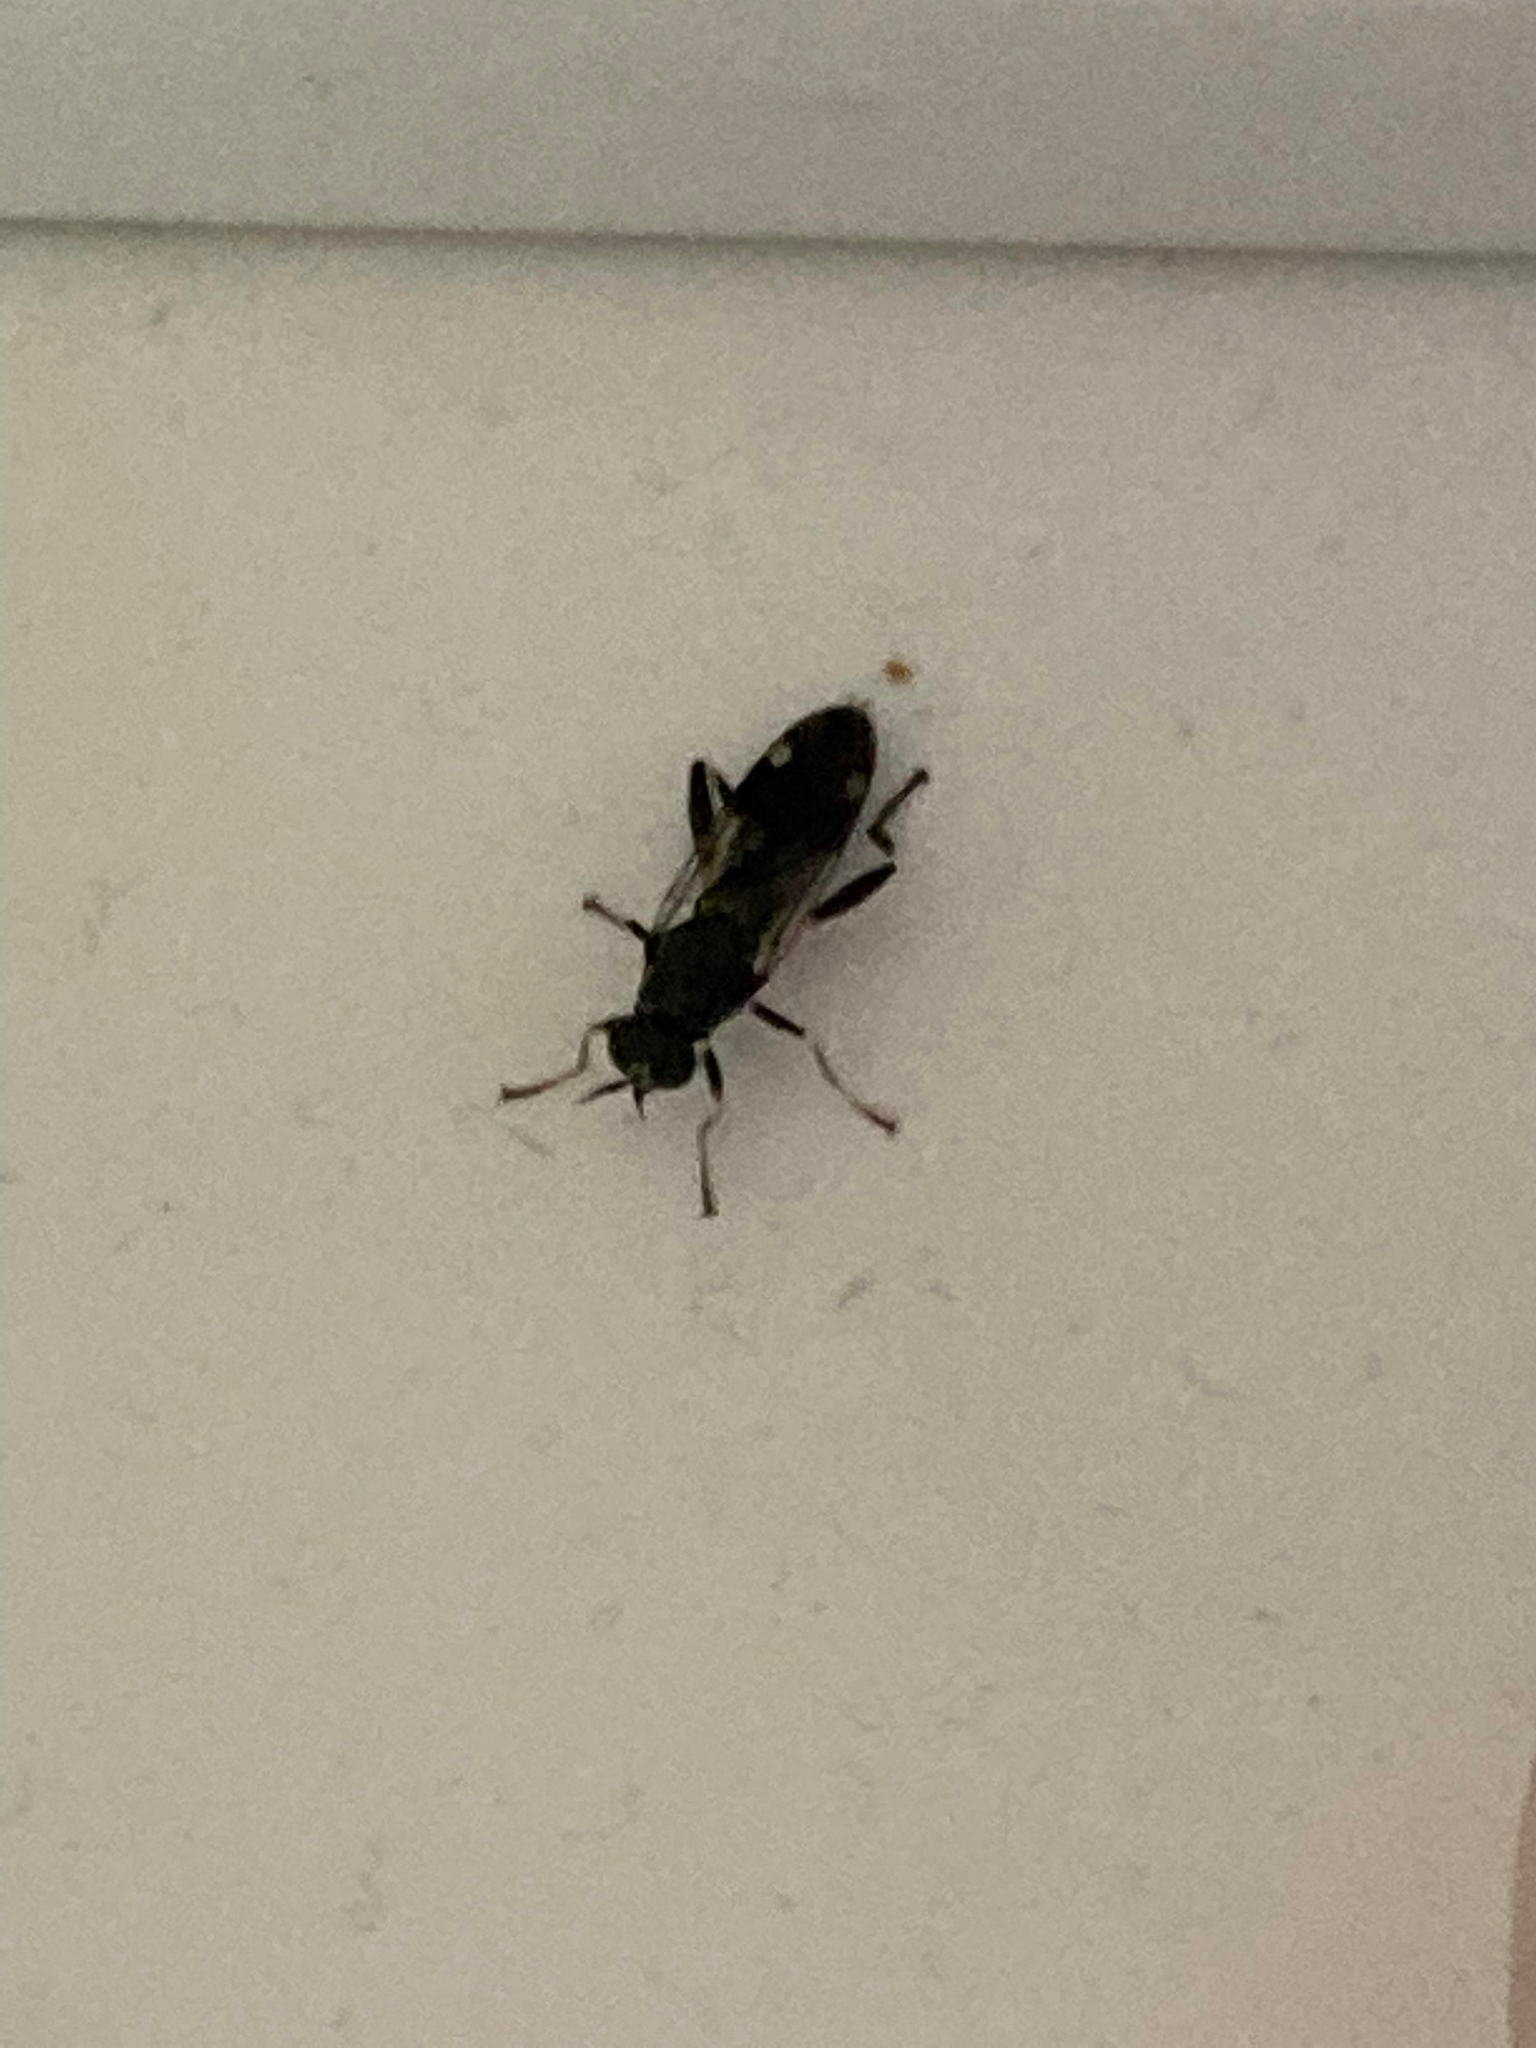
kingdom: Animalia
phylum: Arthropoda
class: Insecta
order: Diptera
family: Stratiomyidae
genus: Exaireta
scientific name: Exaireta spinigera
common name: Blue soldier fly
